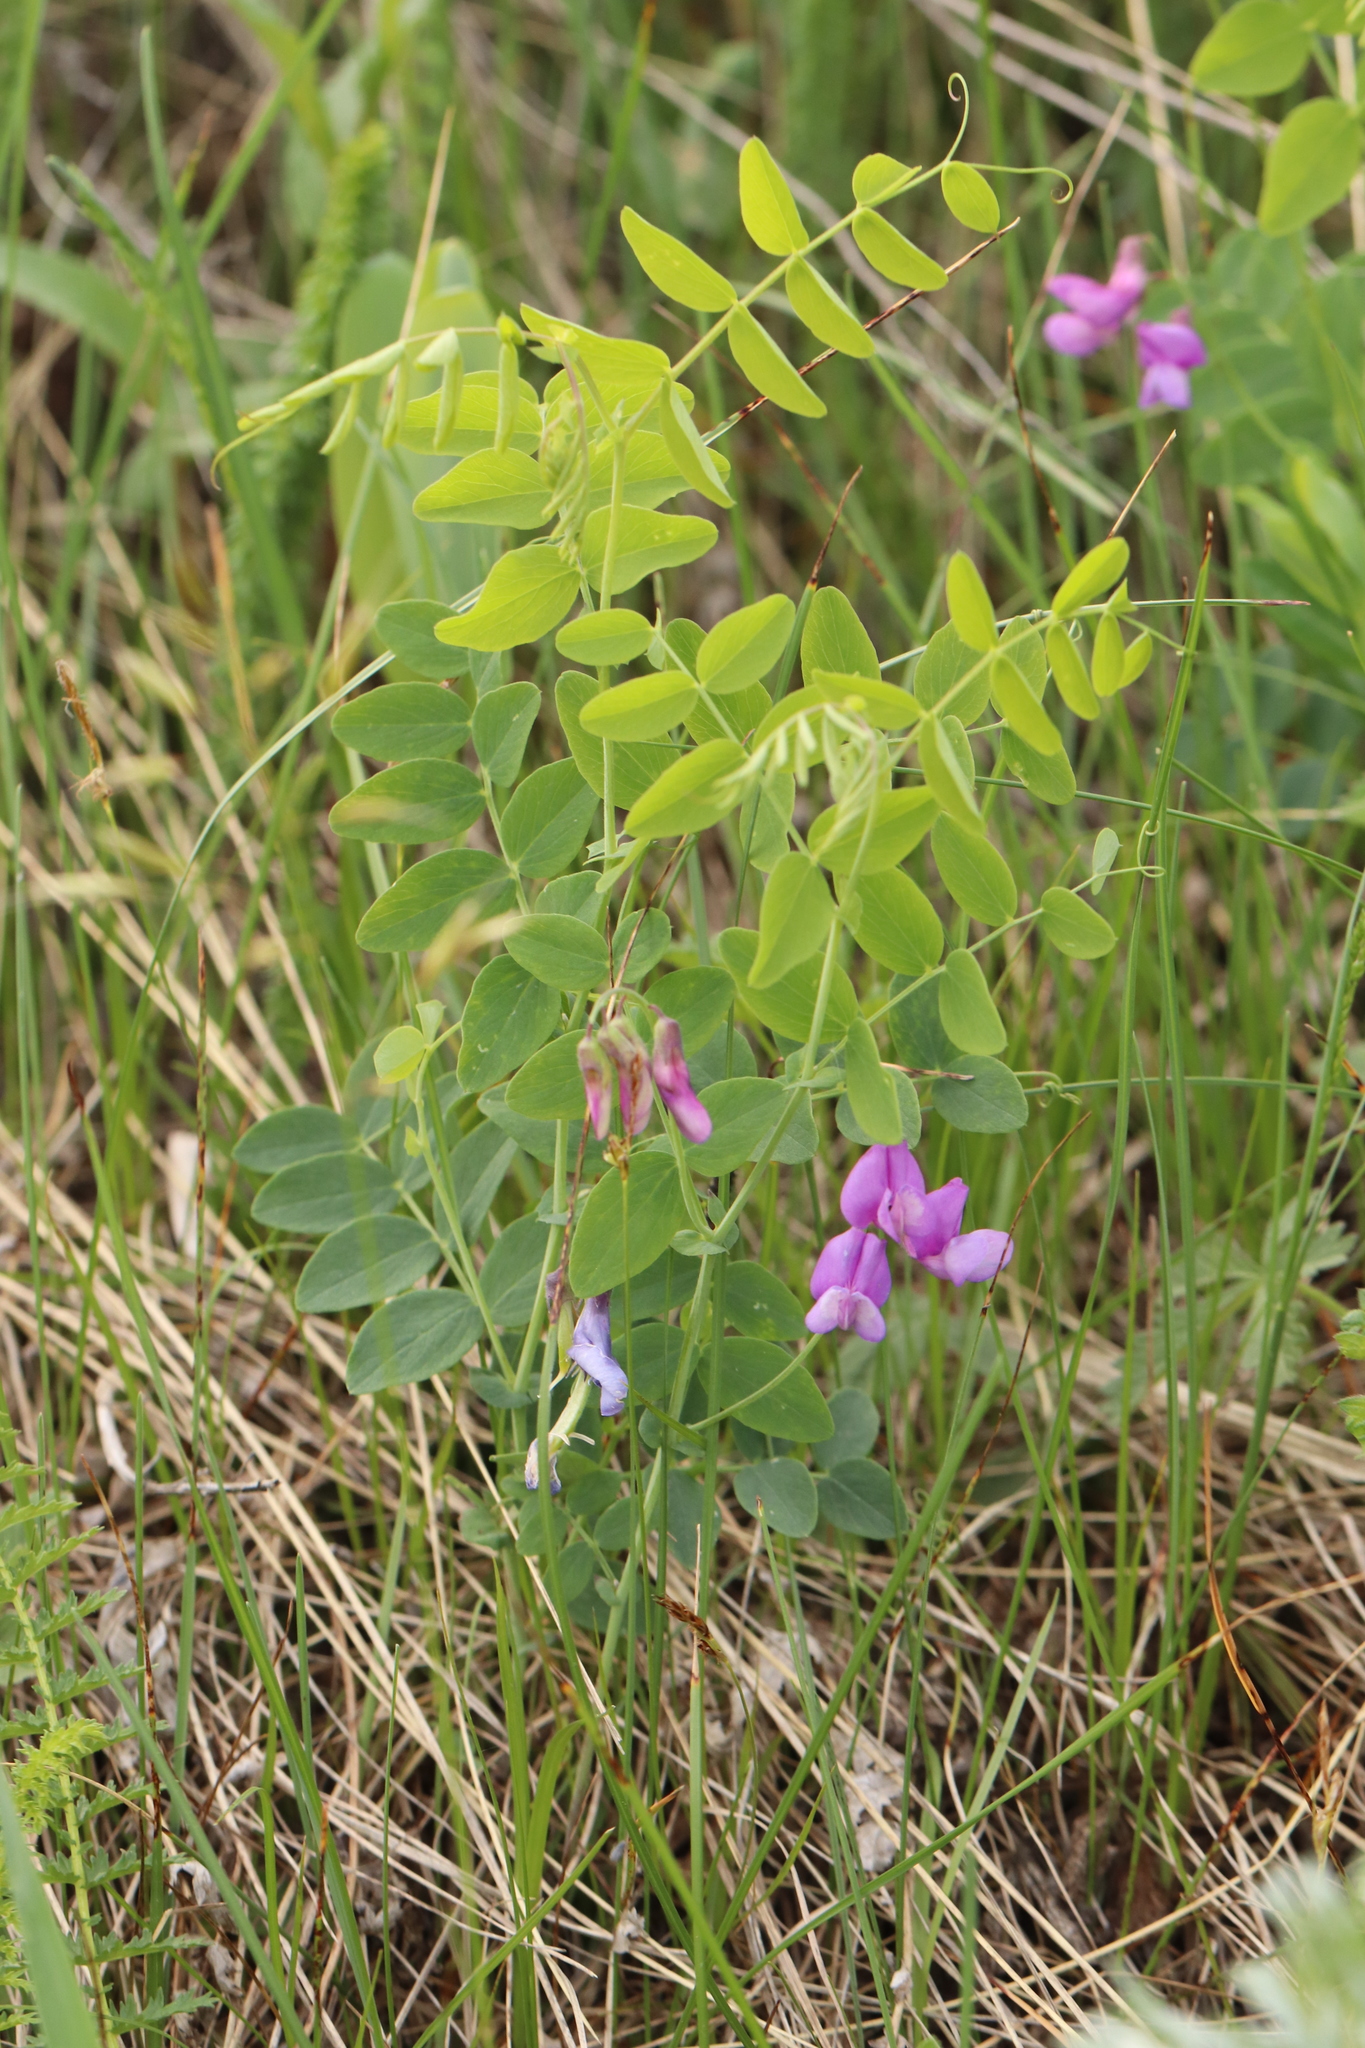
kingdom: Plantae
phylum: Tracheophyta
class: Magnoliopsida
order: Fabales
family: Fabaceae
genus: Lathyrus
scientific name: Lathyrus humilis
